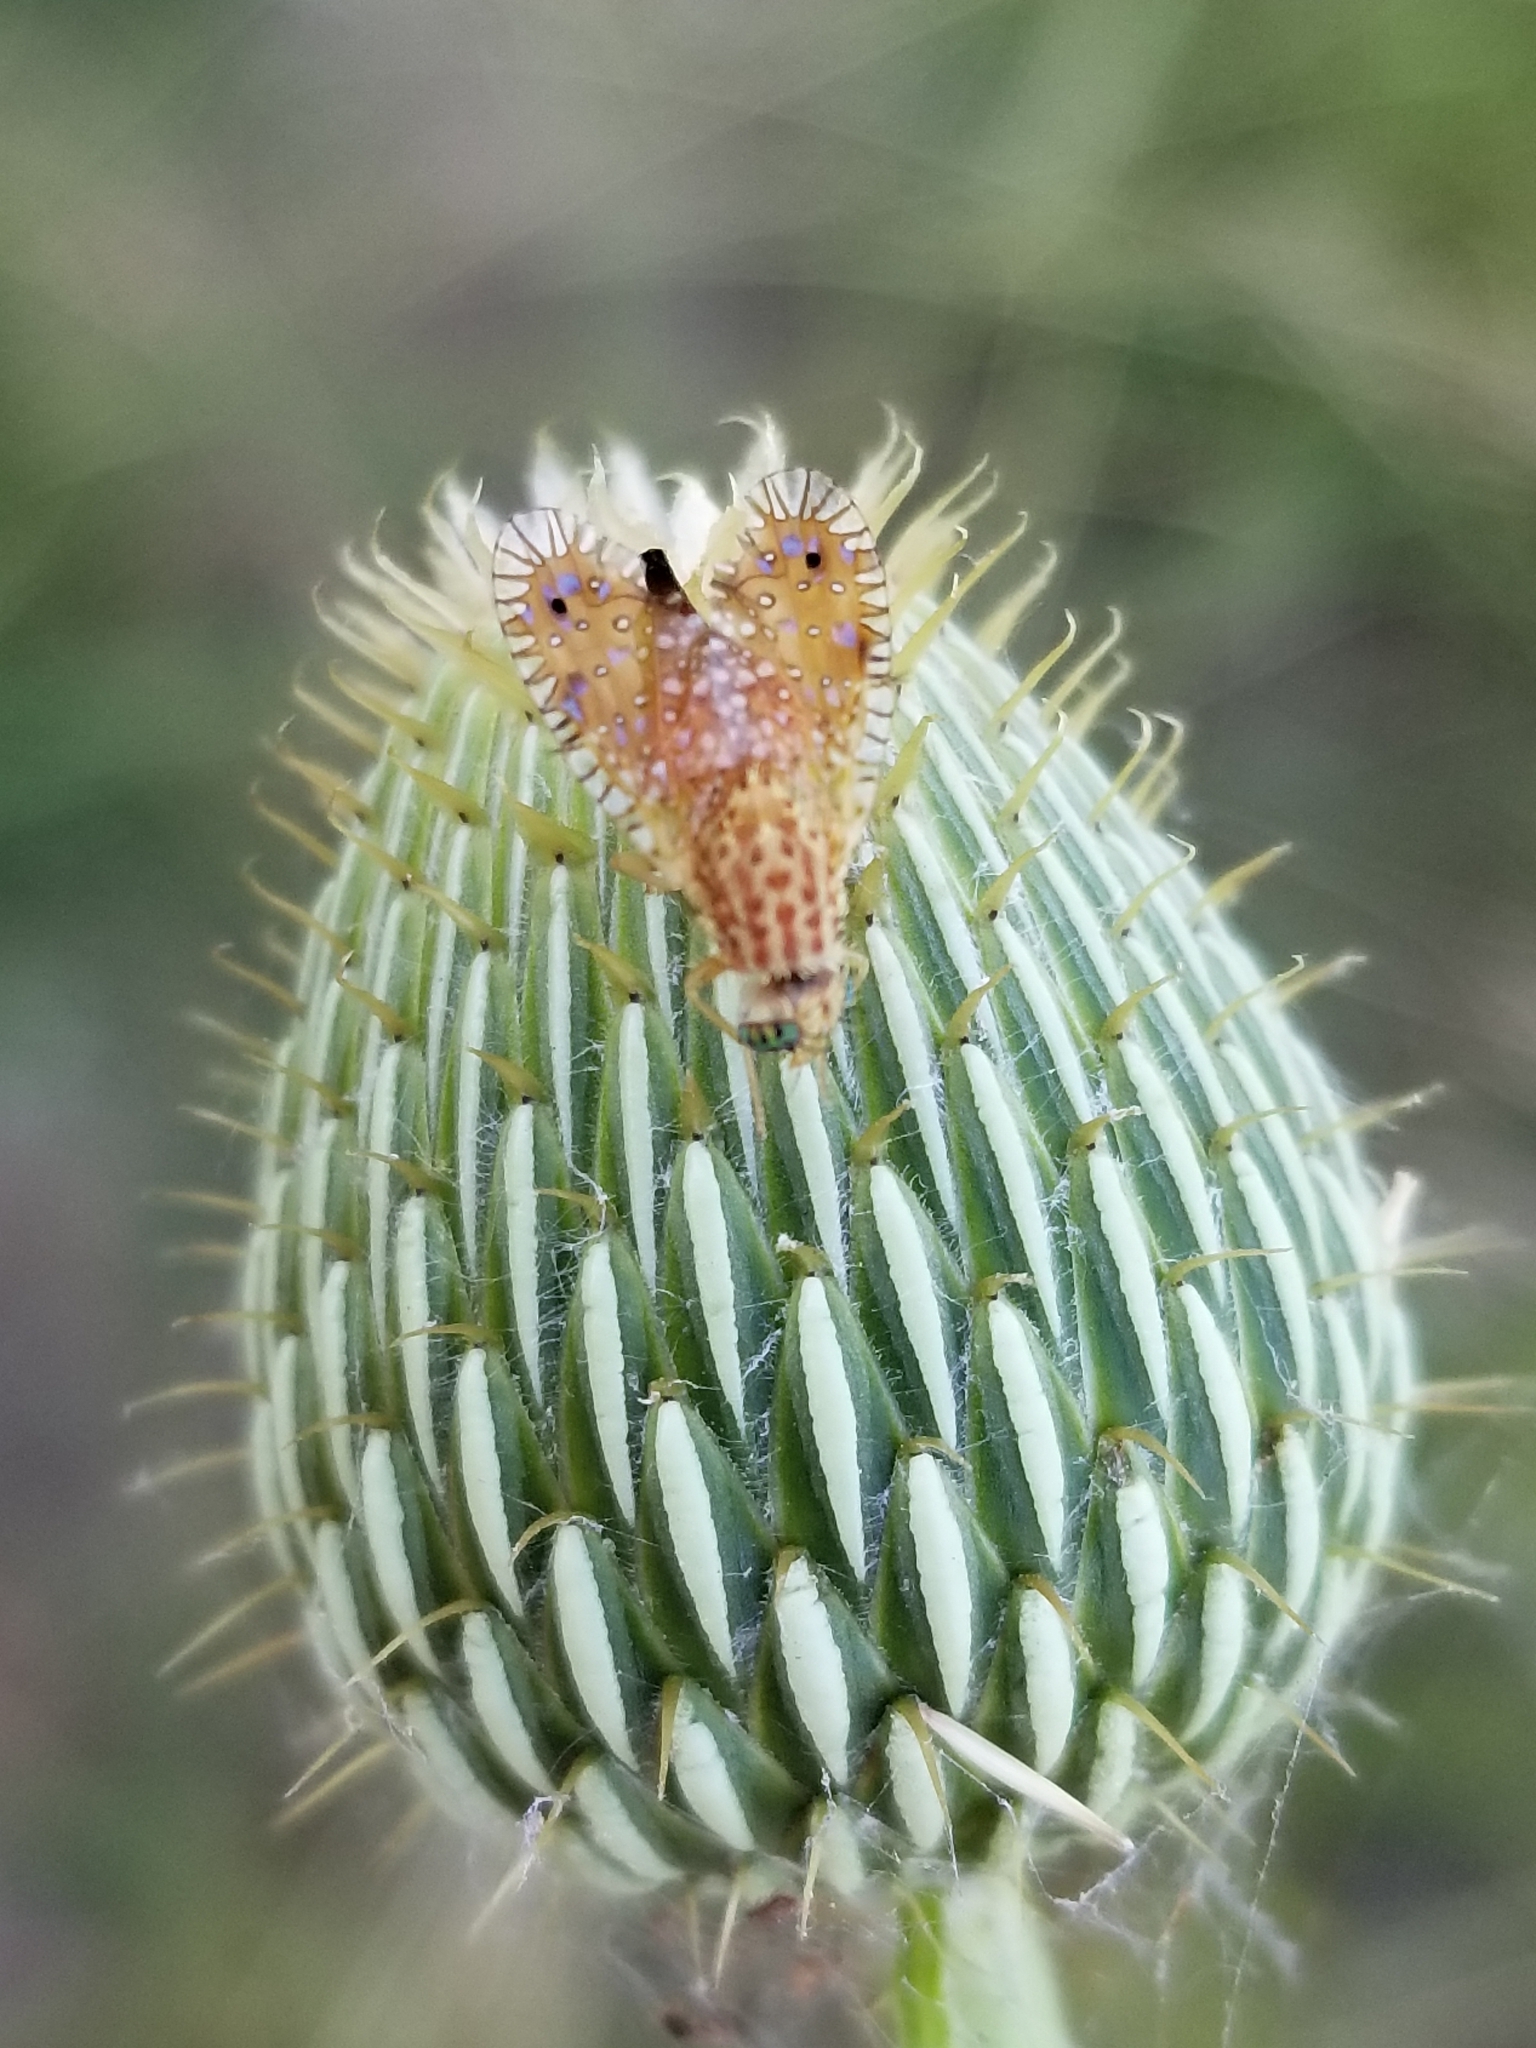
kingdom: Animalia
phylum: Arthropoda
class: Insecta
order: Diptera
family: Tephritidae
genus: Paracantha
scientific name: Paracantha culta
